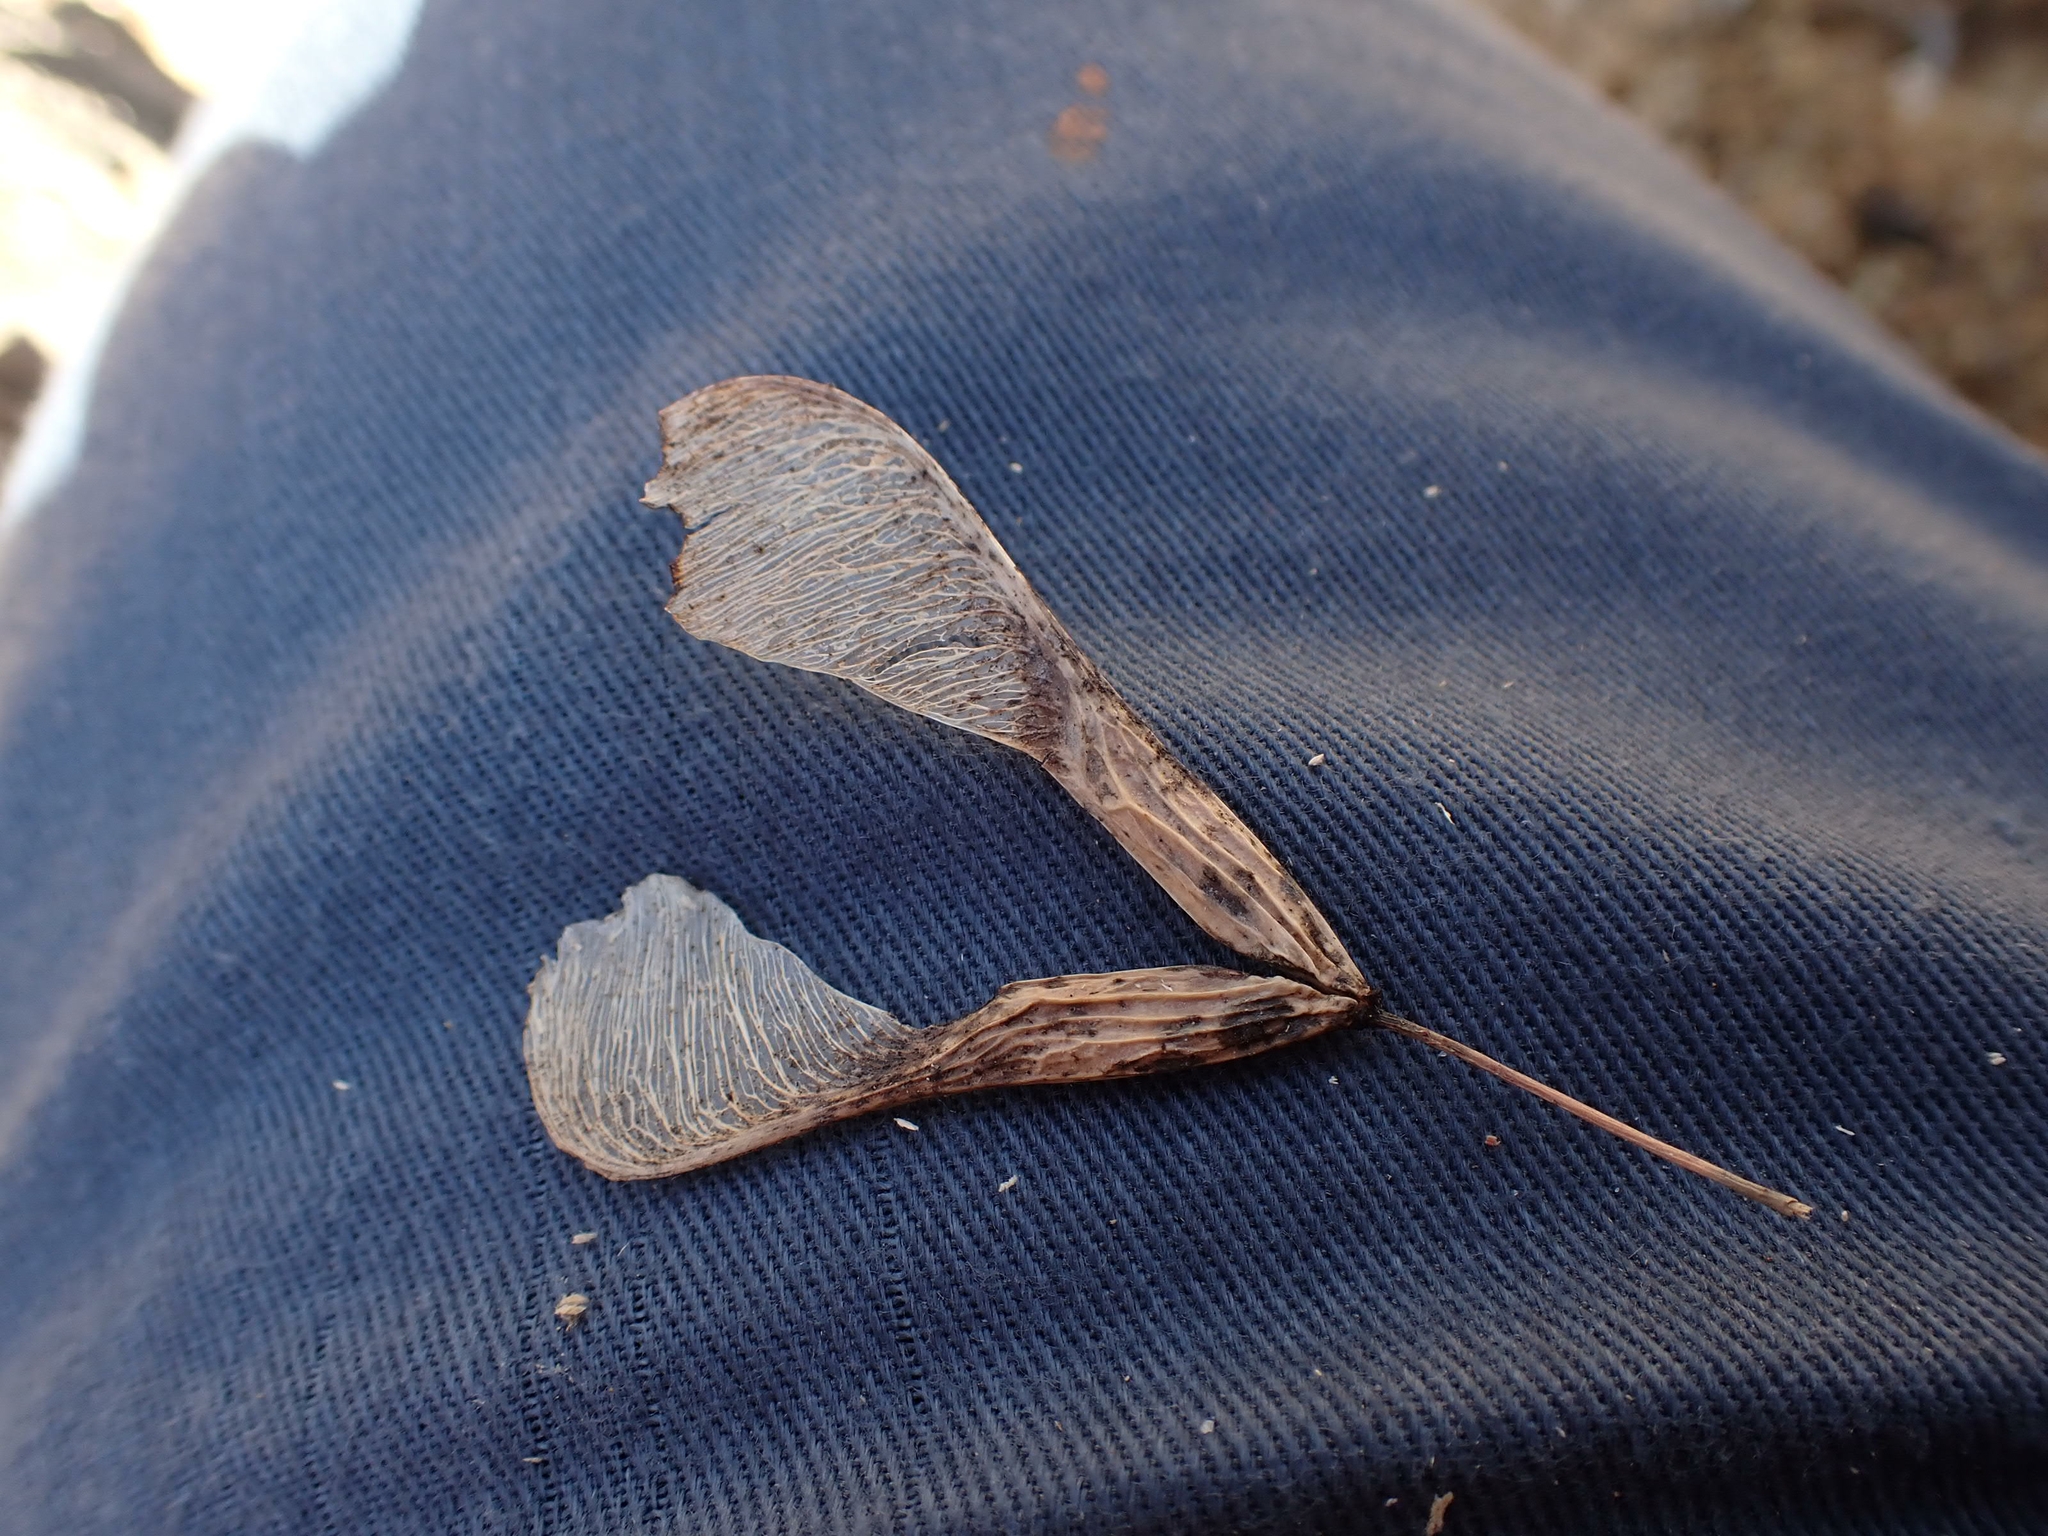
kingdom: Plantae
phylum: Tracheophyta
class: Magnoliopsida
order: Sapindales
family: Sapindaceae
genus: Acer
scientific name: Acer negundo
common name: Ashleaf maple
